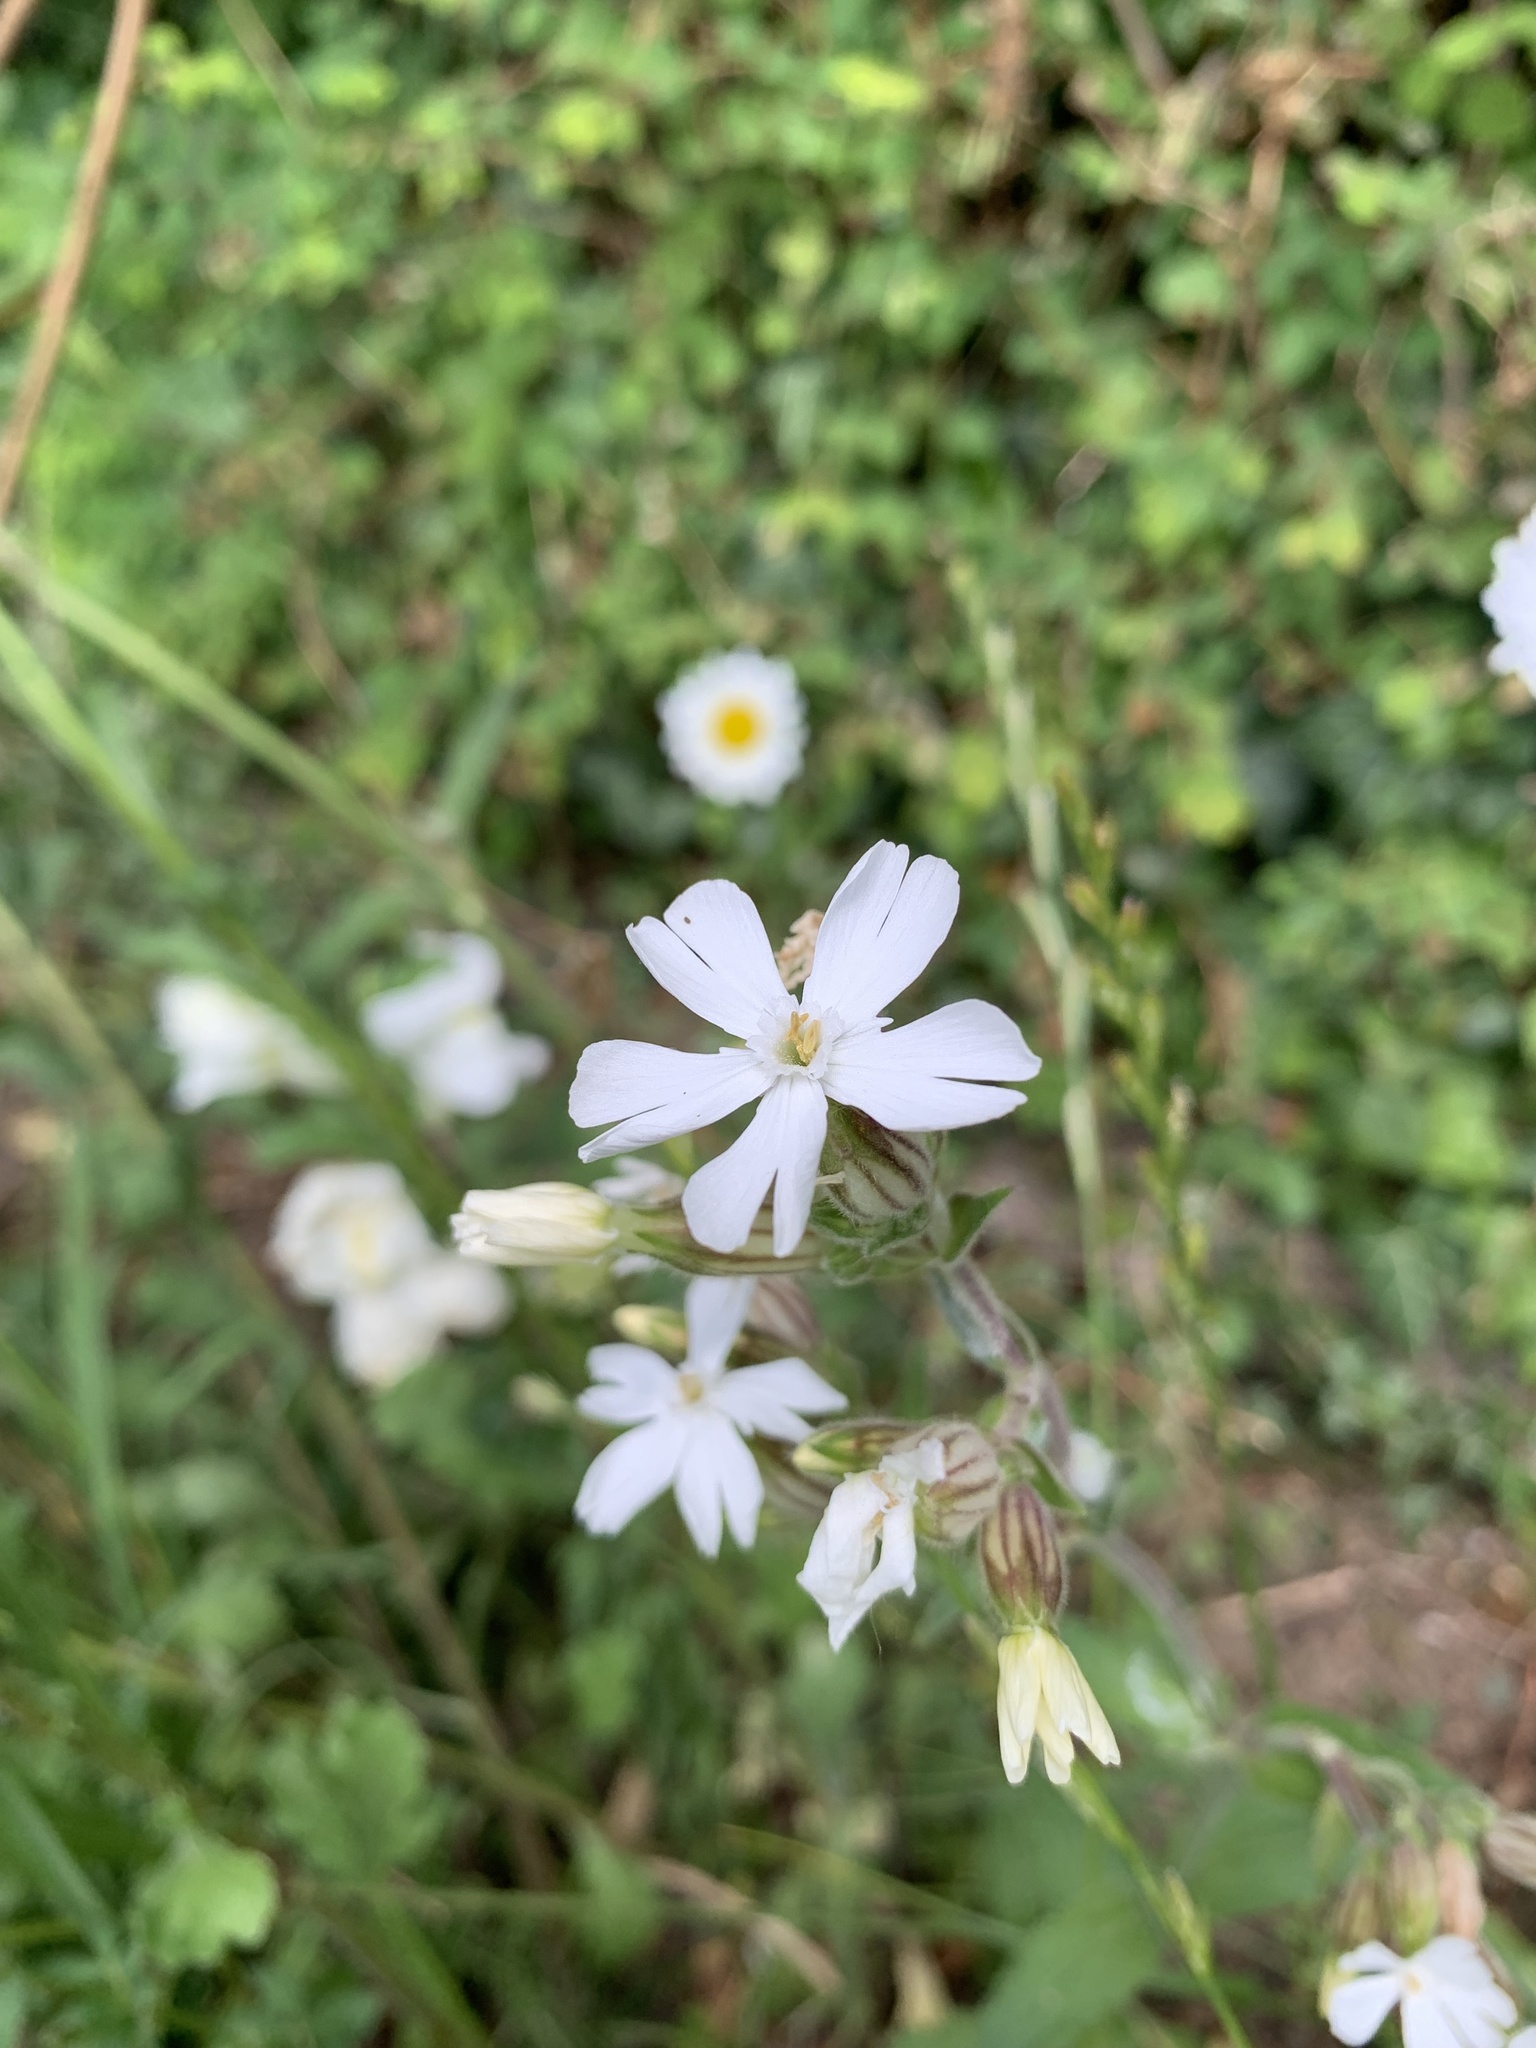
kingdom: Plantae
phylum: Tracheophyta
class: Magnoliopsida
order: Caryophyllales
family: Caryophyllaceae
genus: Silene
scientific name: Silene latifolia
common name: White campion
